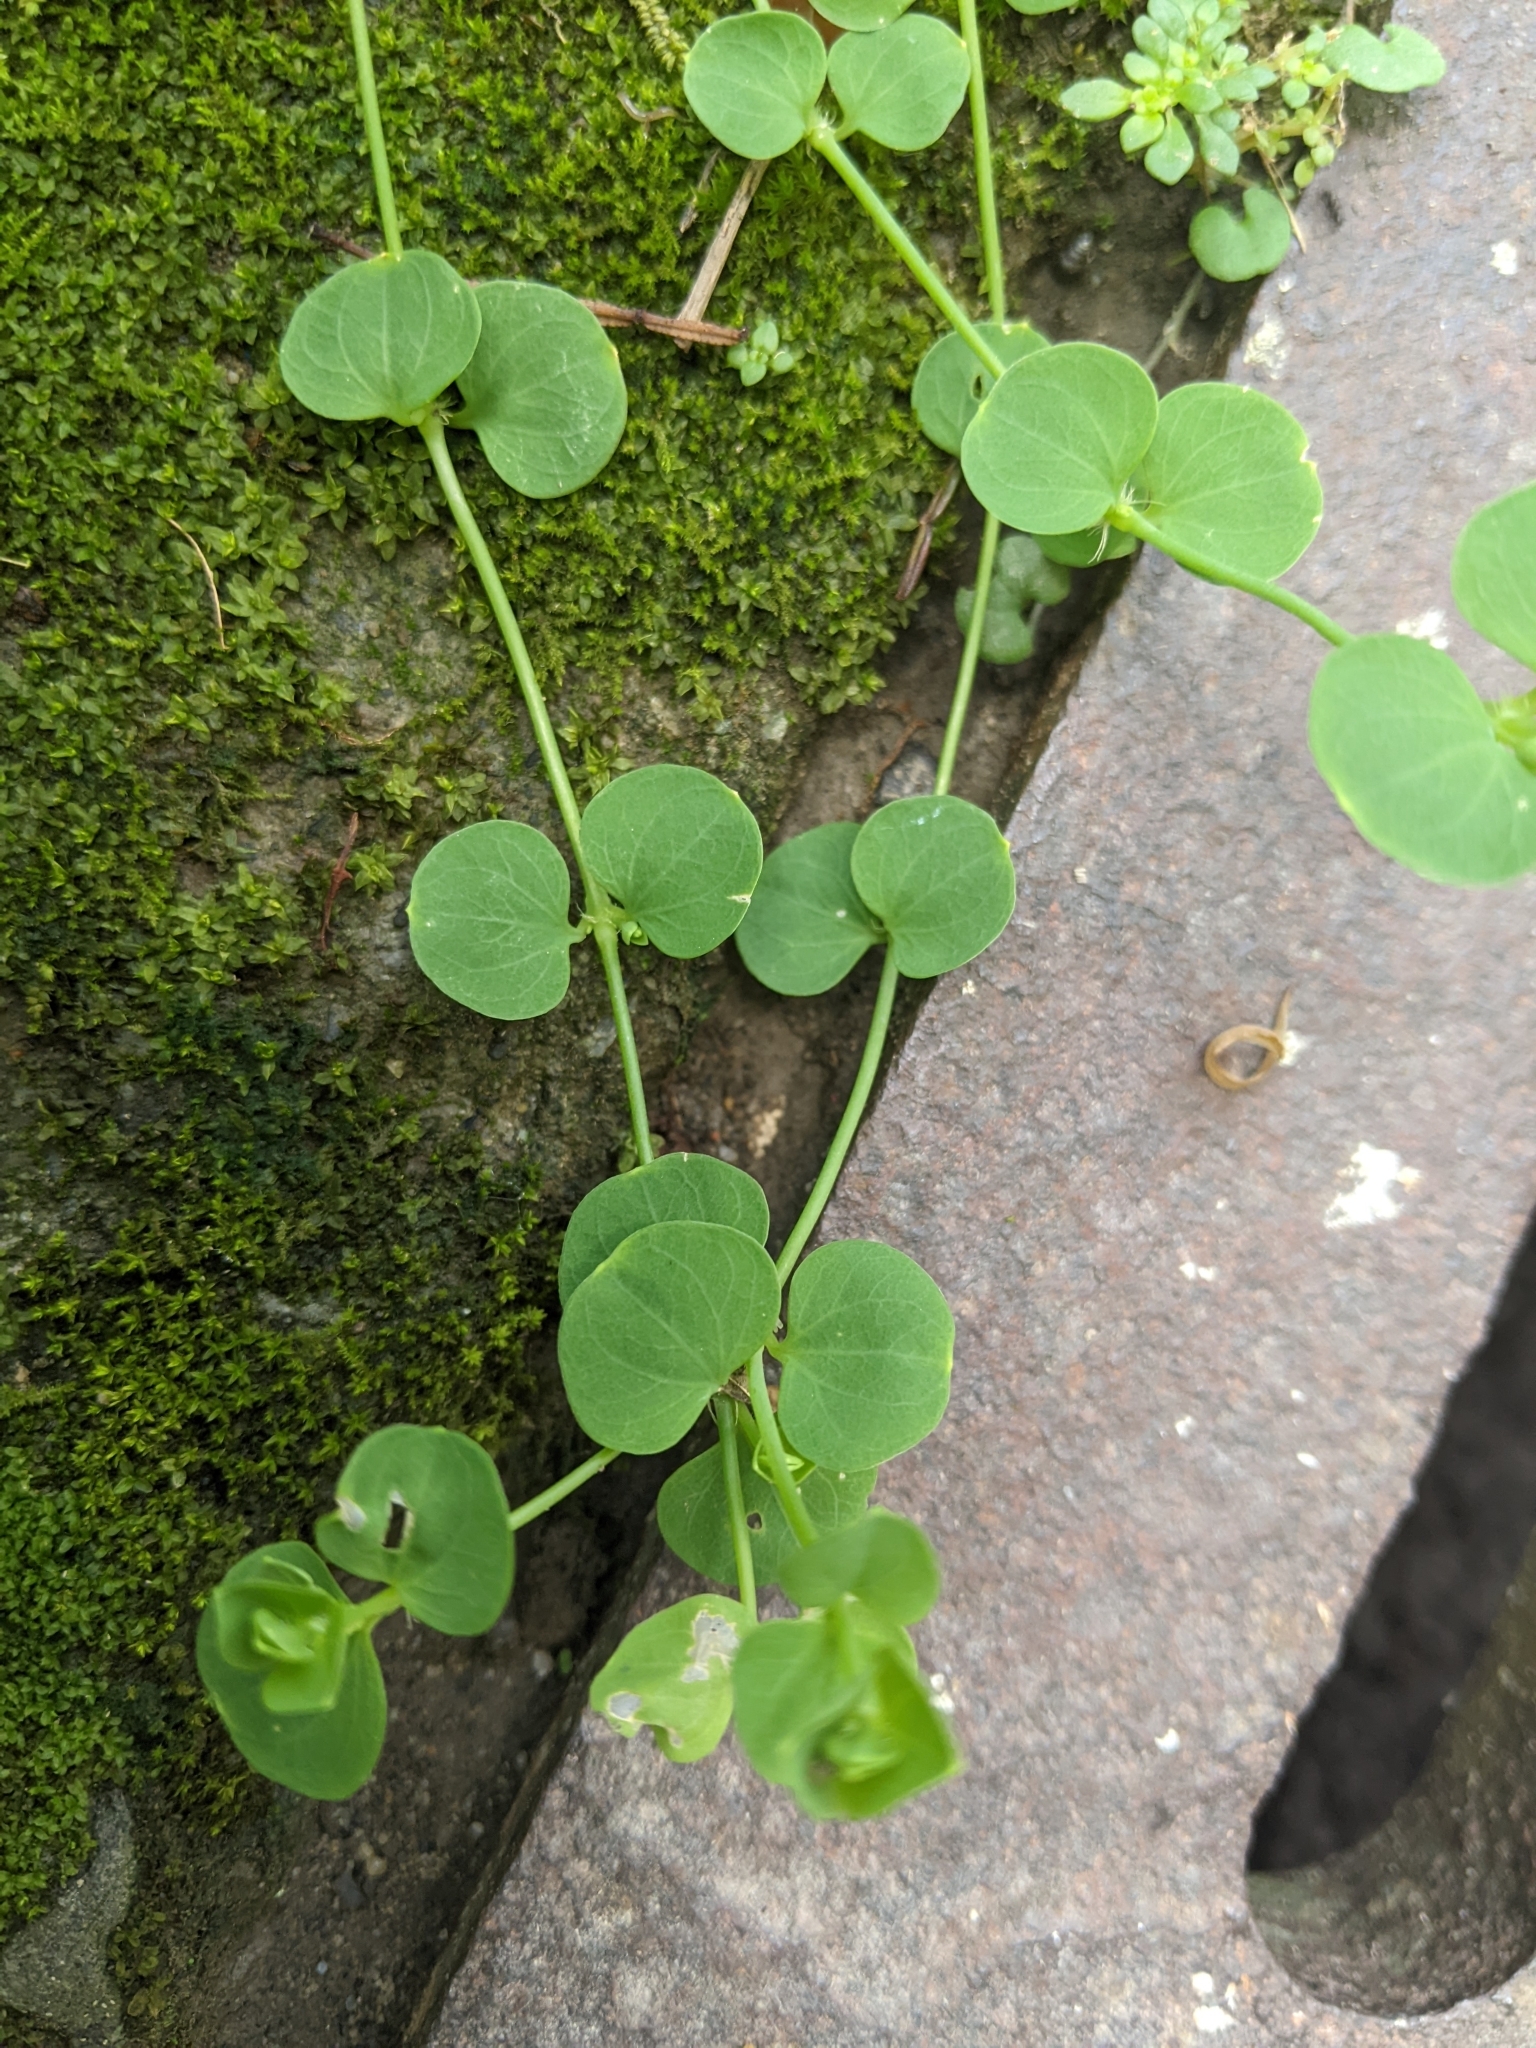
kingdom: Plantae
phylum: Tracheophyta
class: Magnoliopsida
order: Caryophyllales
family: Caryophyllaceae
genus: Drymaria
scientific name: Drymaria cordata
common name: Whitesnow
